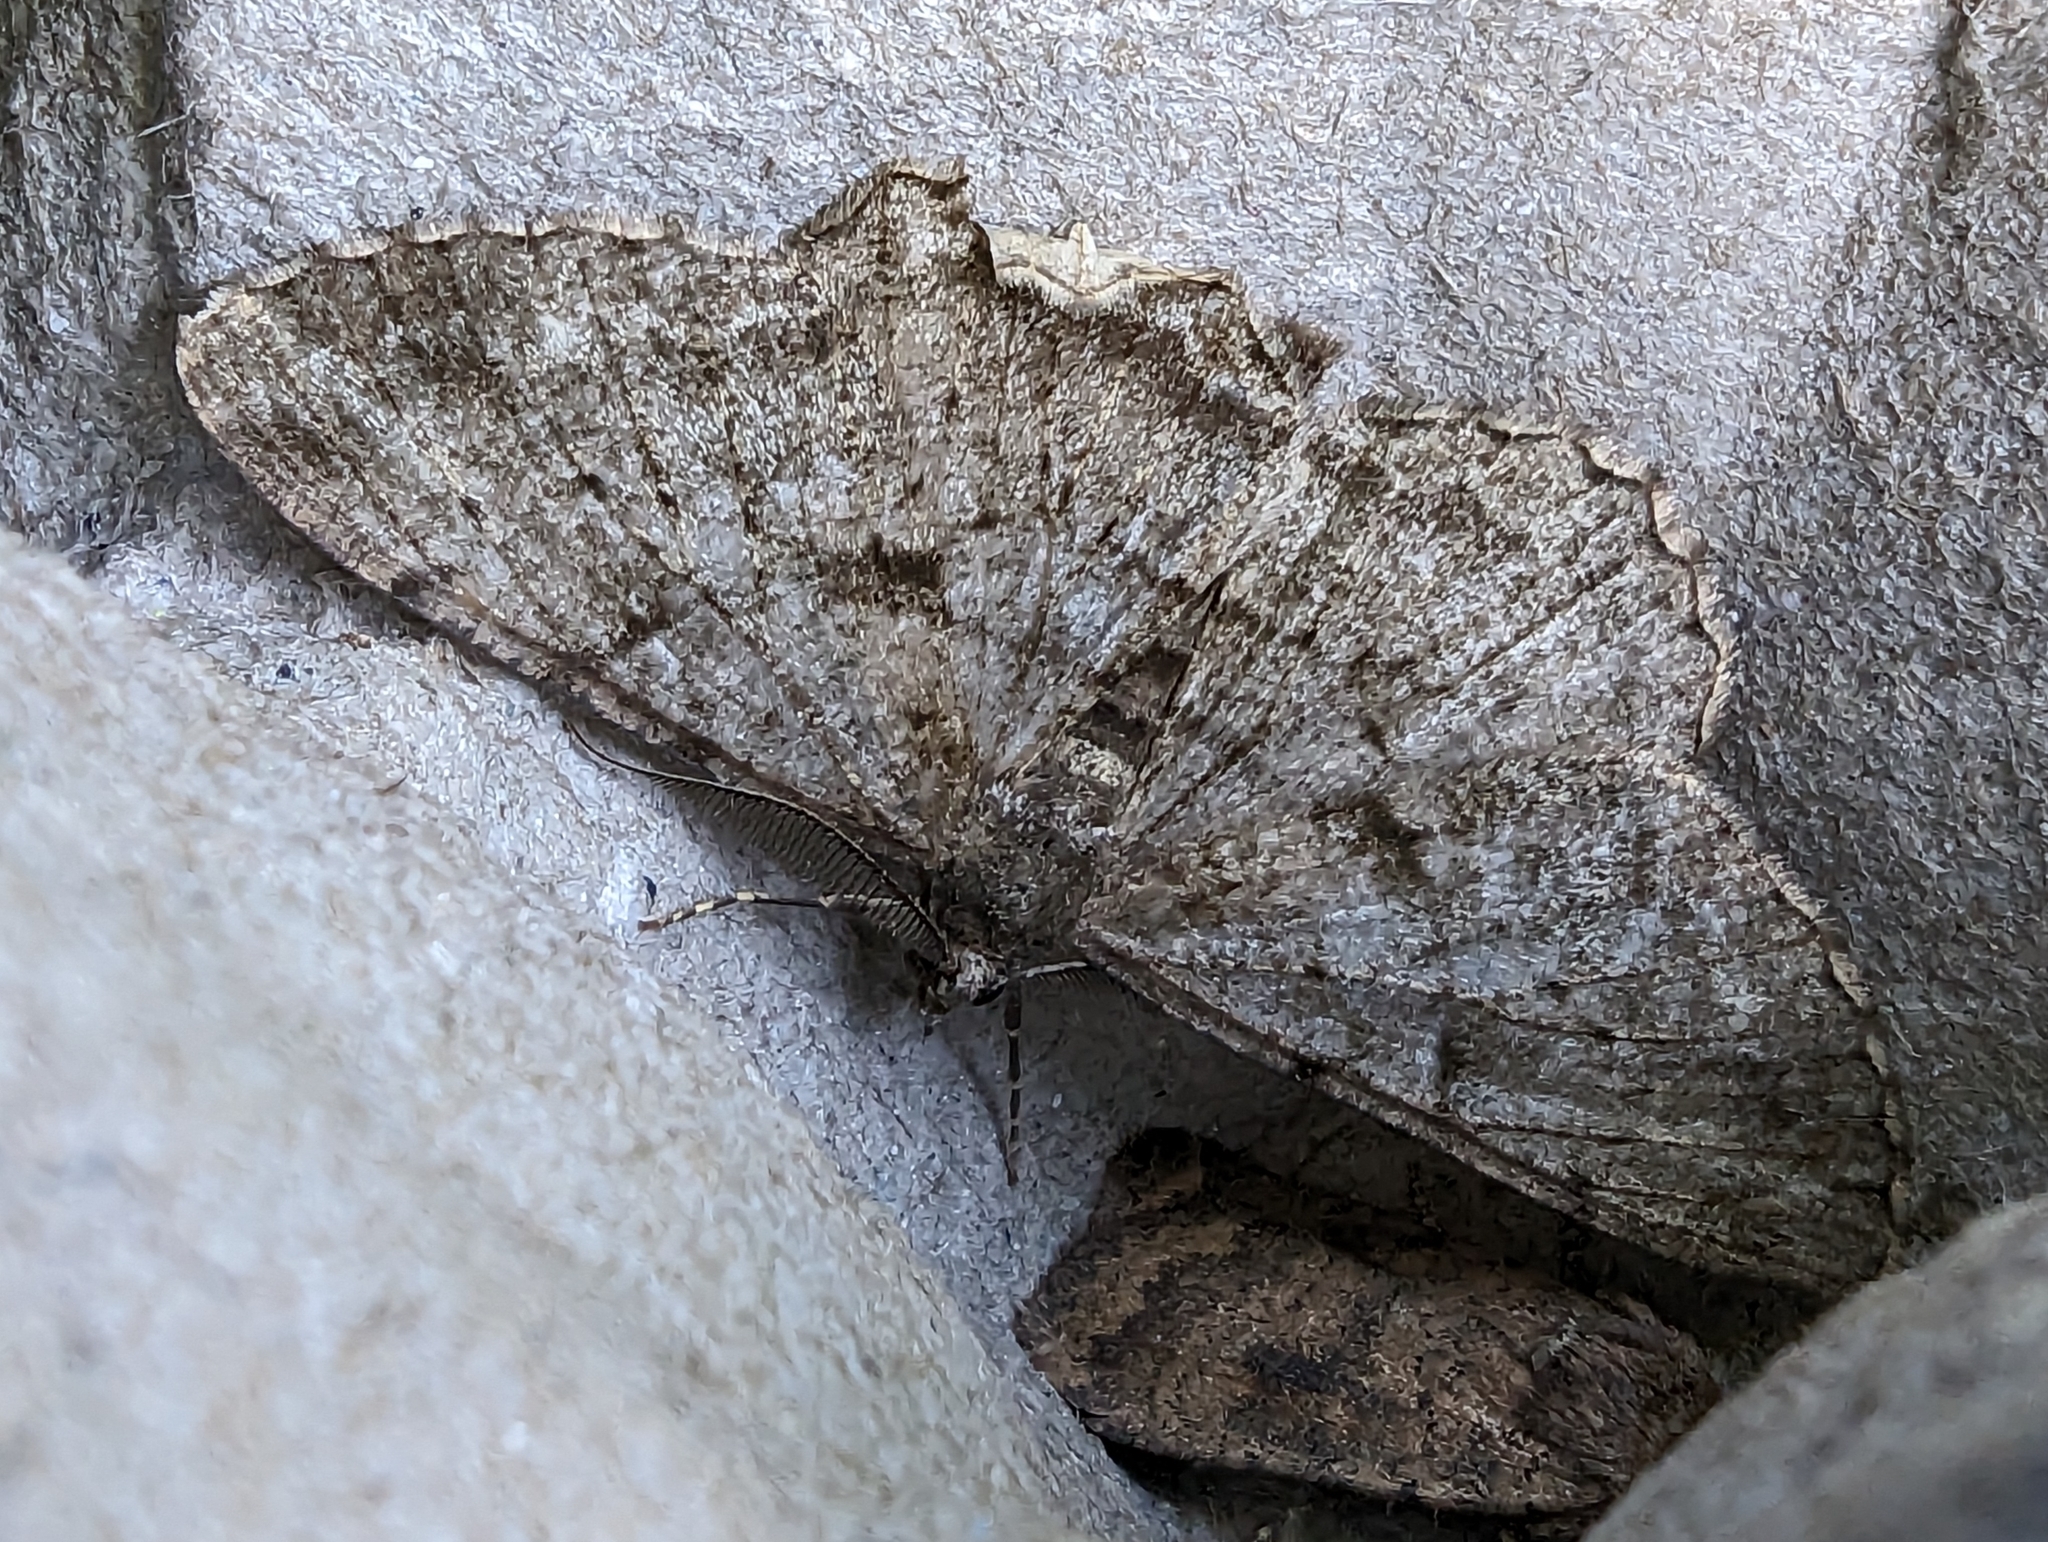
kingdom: Animalia
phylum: Arthropoda
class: Insecta
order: Lepidoptera
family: Geometridae
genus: Peribatodes
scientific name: Peribatodes rhomboidaria
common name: Willow beauty
